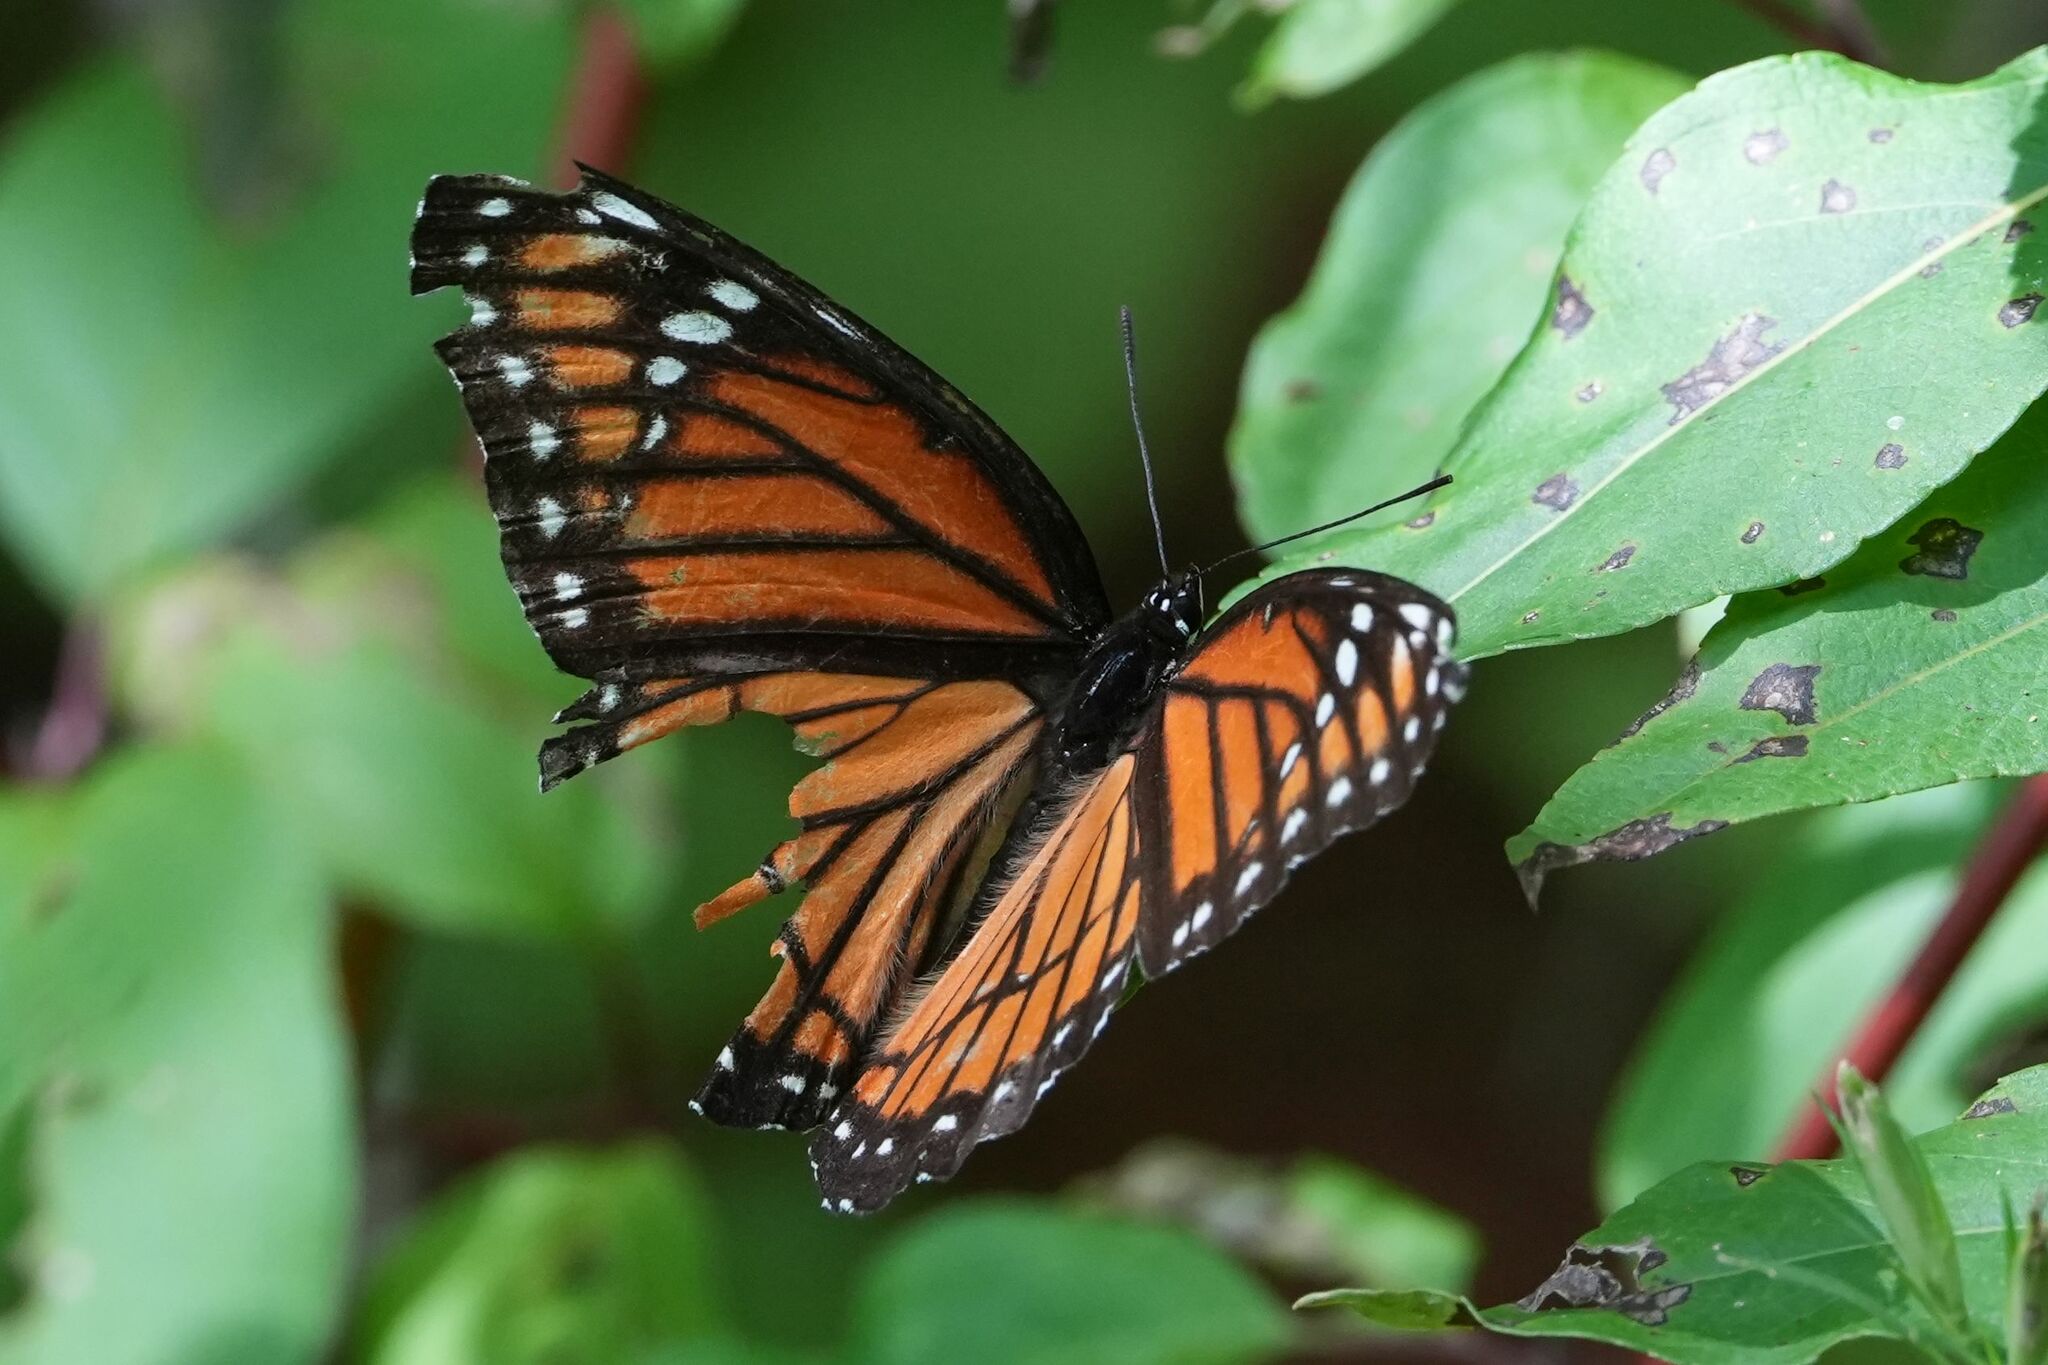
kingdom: Animalia
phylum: Arthropoda
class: Insecta
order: Lepidoptera
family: Nymphalidae
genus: Limenitis
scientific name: Limenitis archippus
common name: Viceroy
